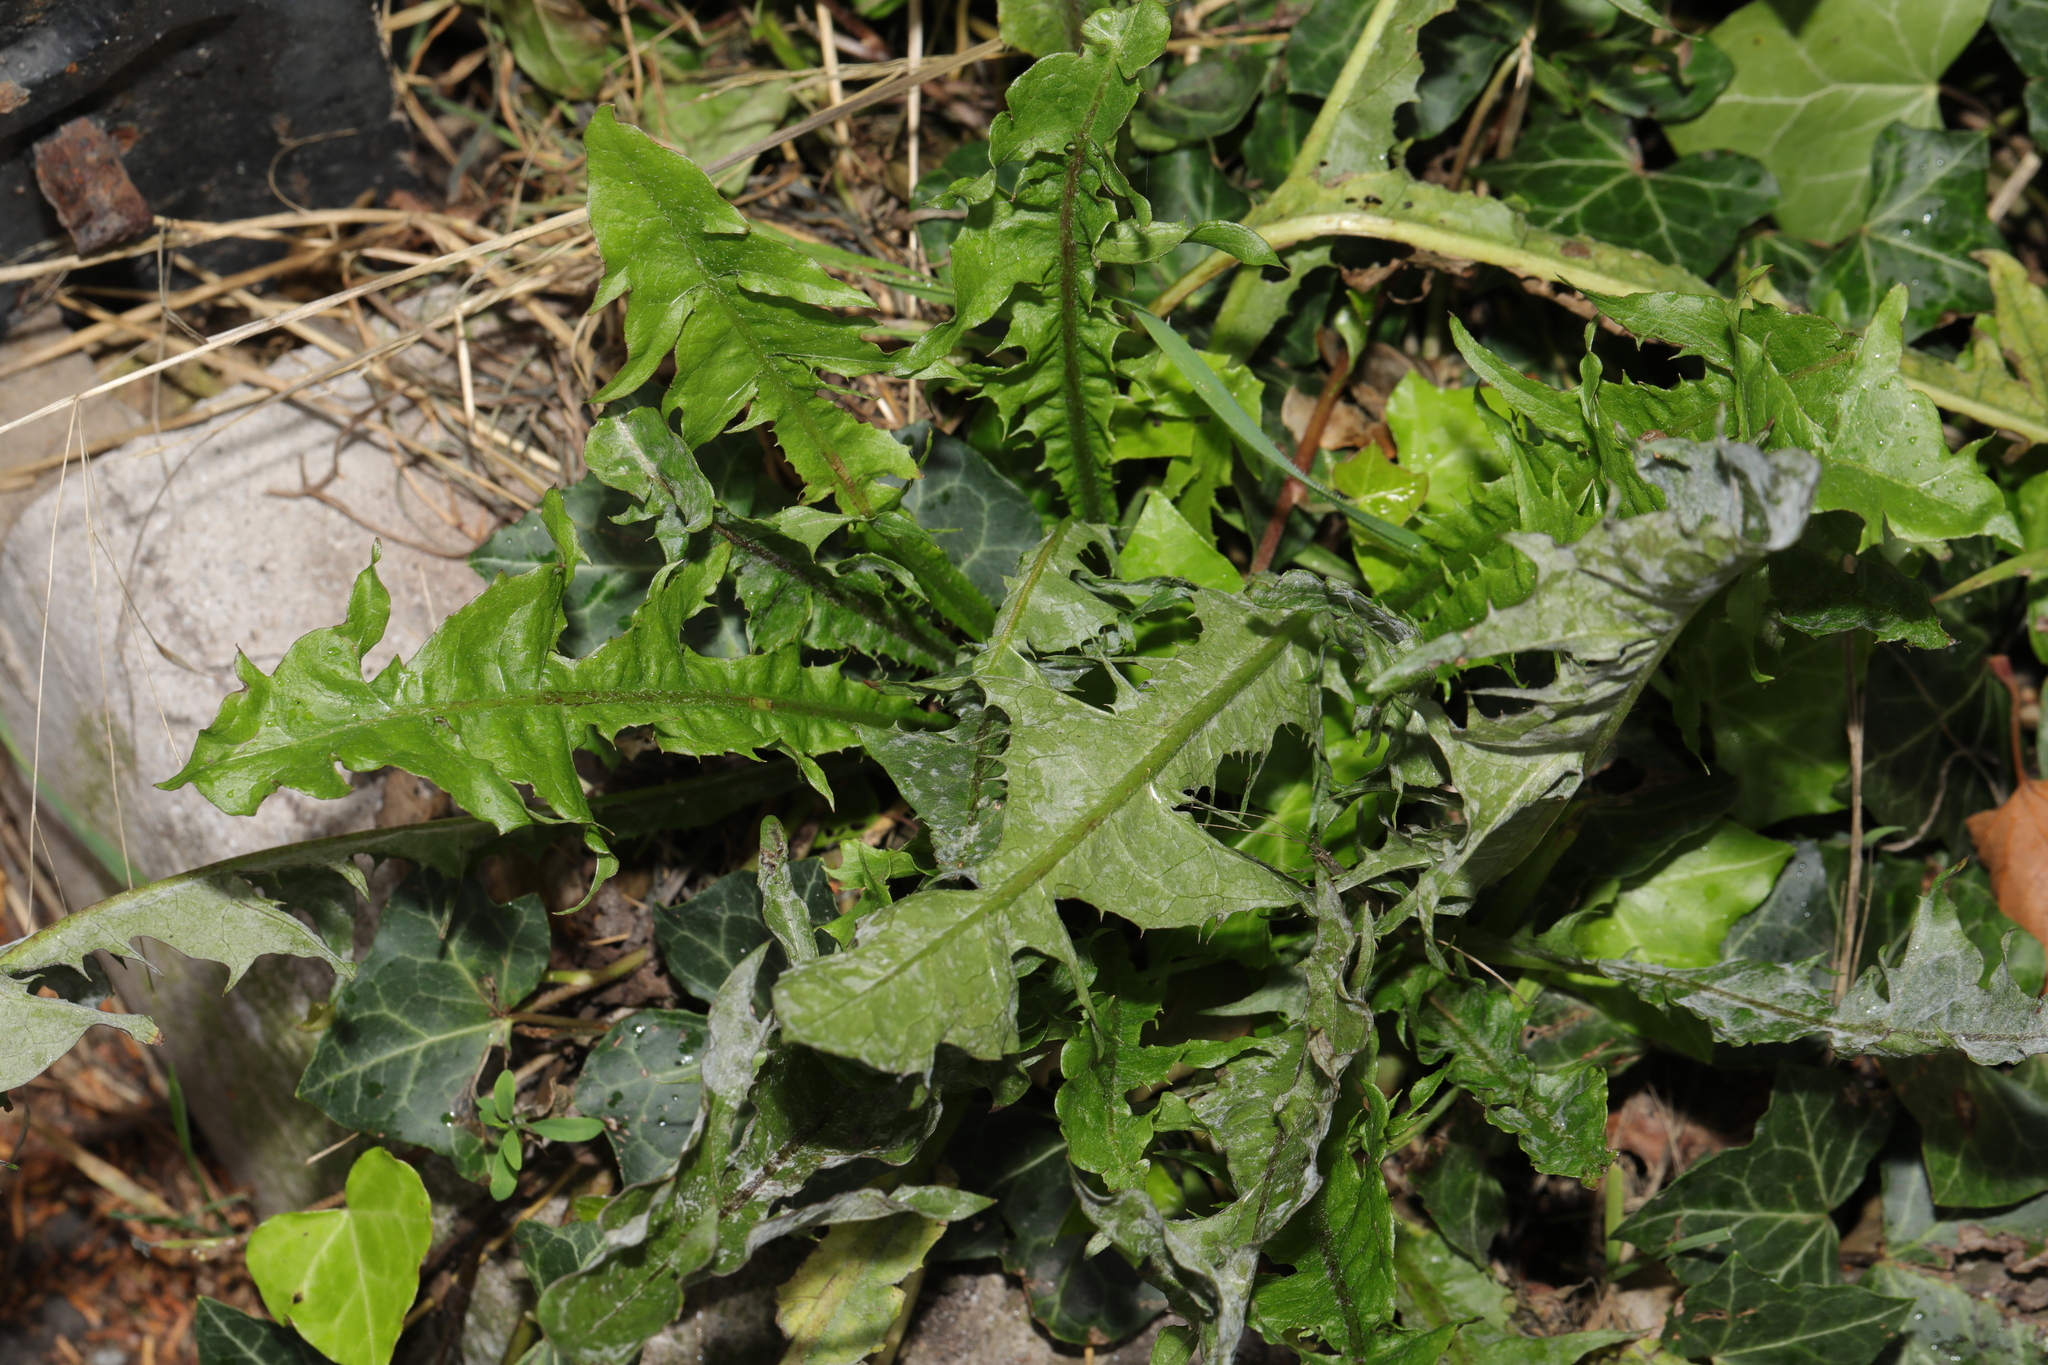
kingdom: Plantae
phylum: Tracheophyta
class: Magnoliopsida
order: Asterales
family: Asteraceae
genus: Taraxacum
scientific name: Taraxacum officinale
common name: Common dandelion
